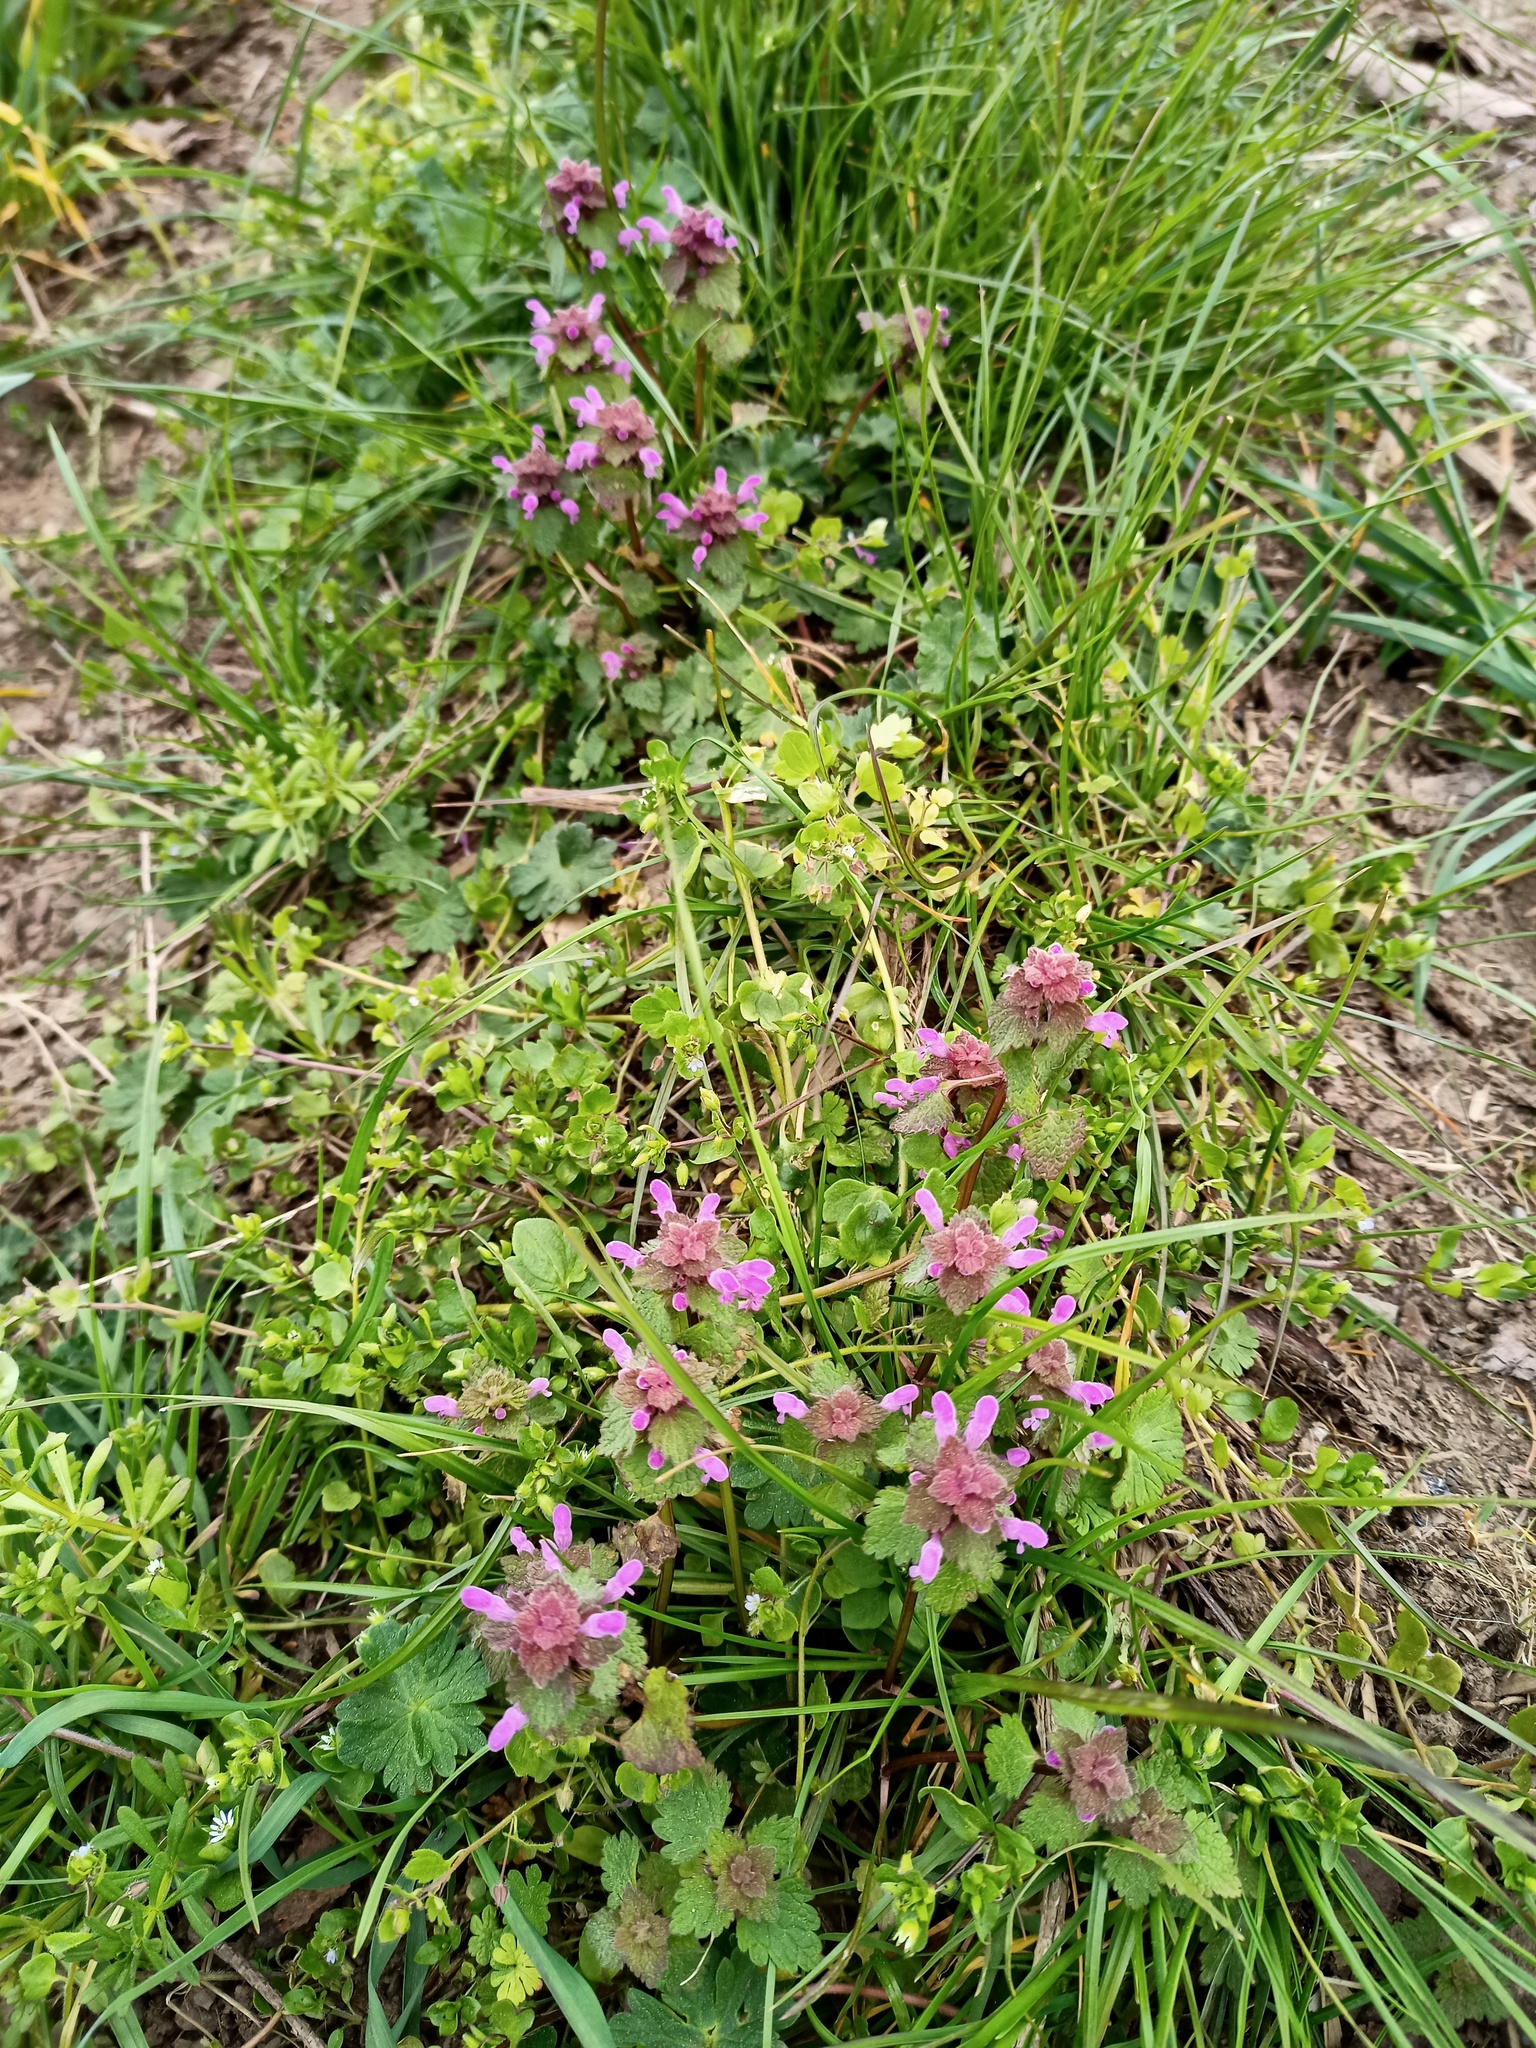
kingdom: Plantae
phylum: Tracheophyta
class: Magnoliopsida
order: Lamiales
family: Lamiaceae
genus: Lamium
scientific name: Lamium purpureum
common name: Red dead-nettle
